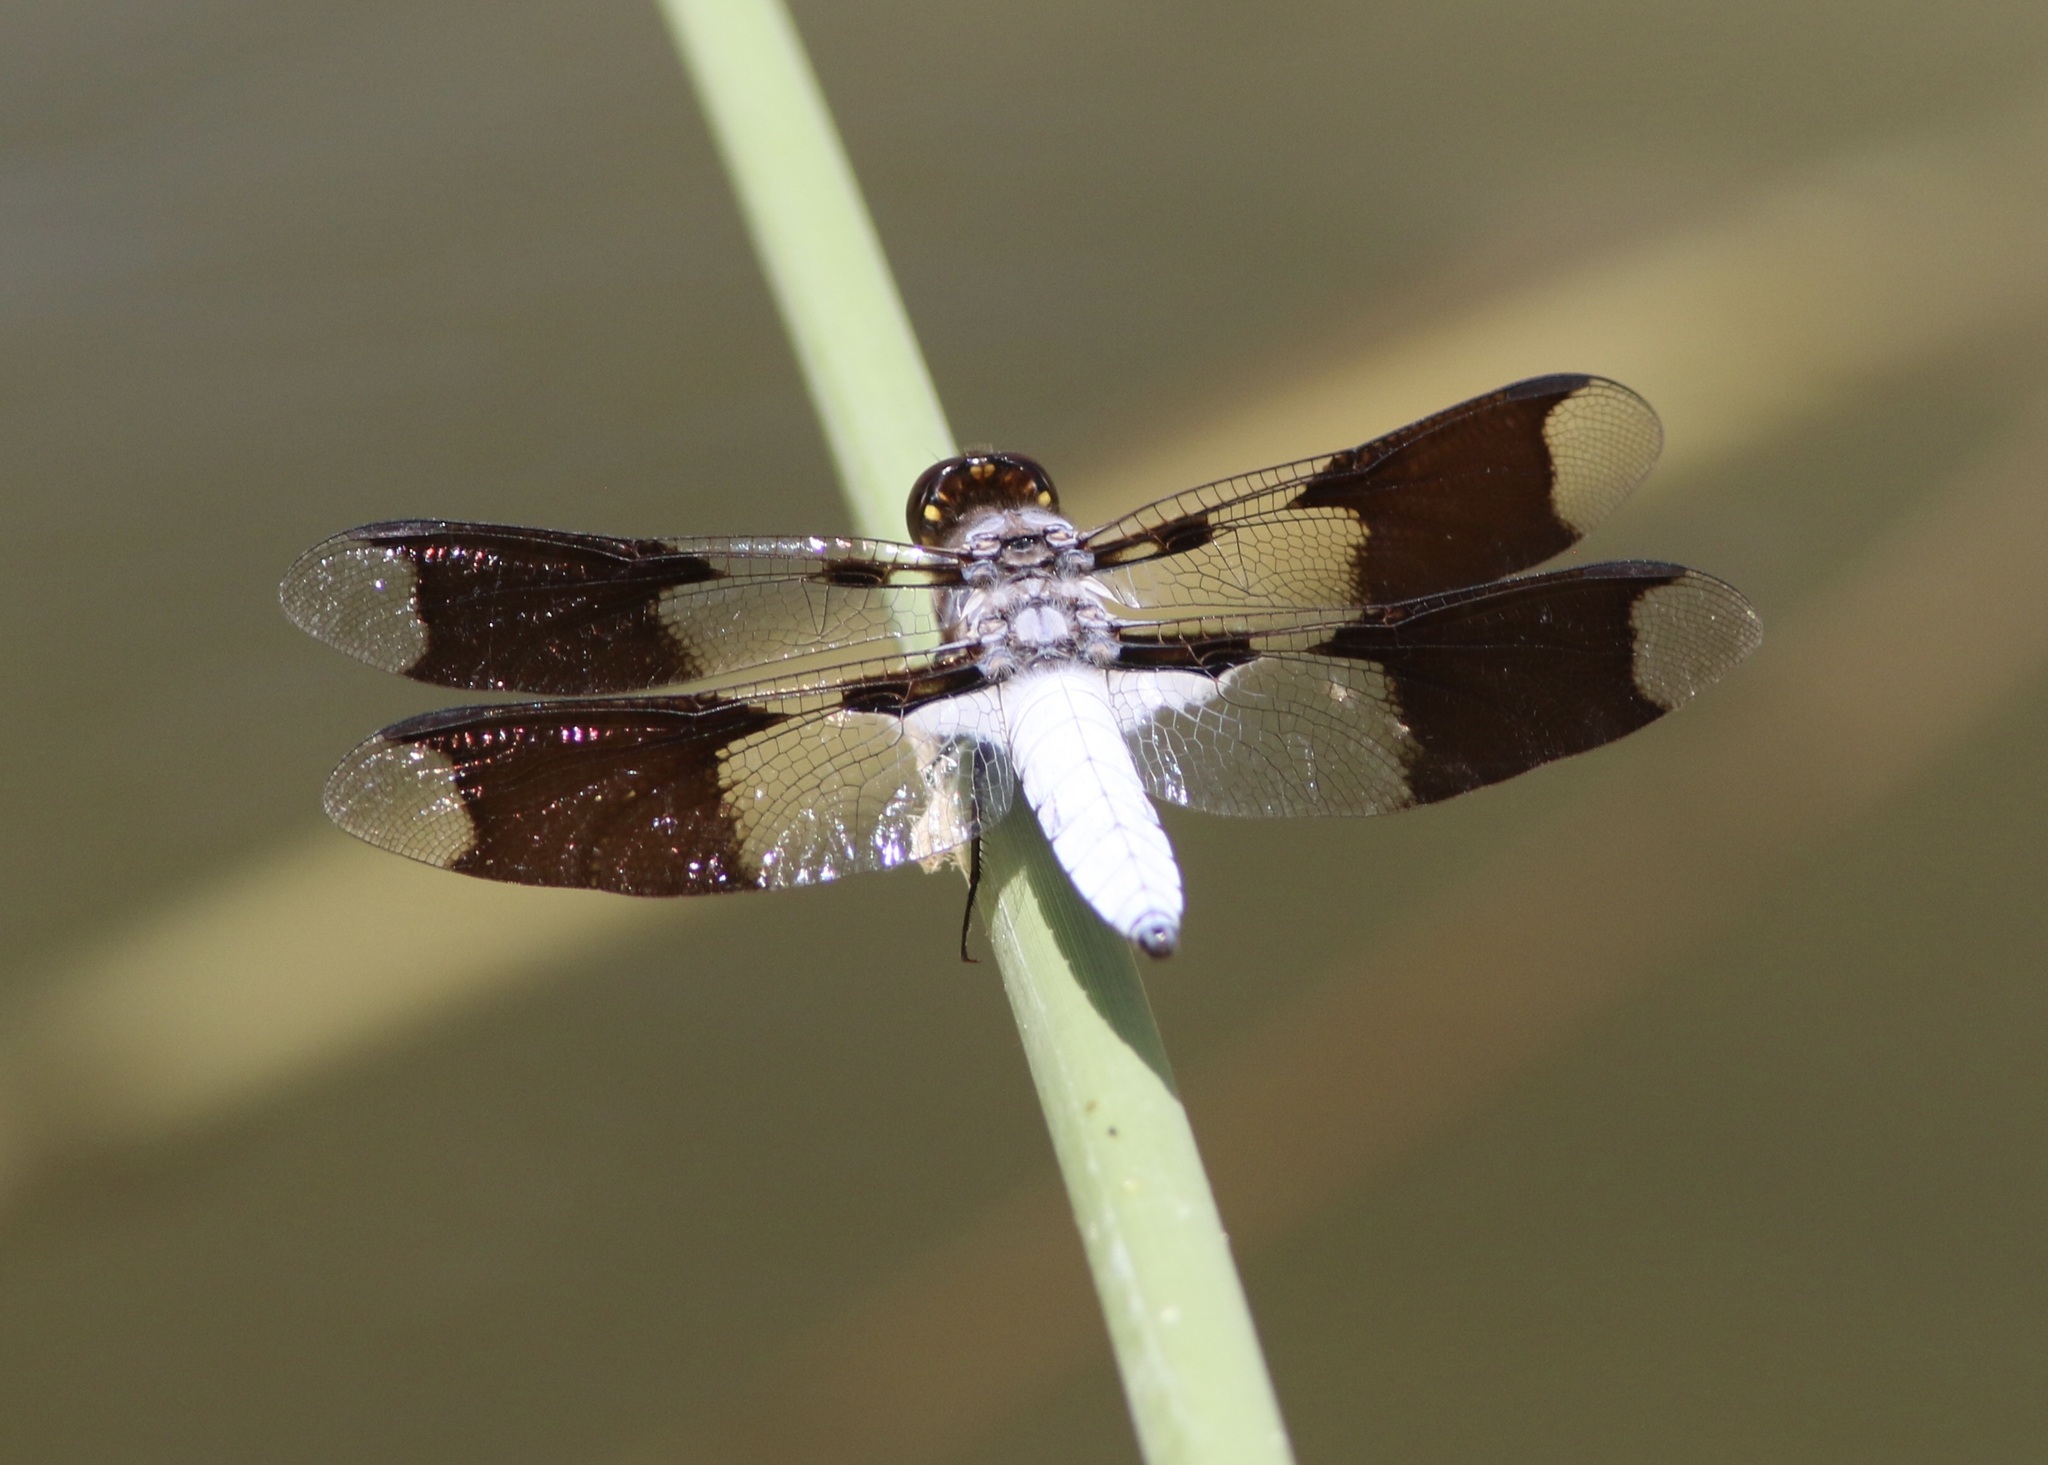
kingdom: Animalia
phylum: Arthropoda
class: Insecta
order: Odonata
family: Libellulidae
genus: Plathemis
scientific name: Plathemis lydia
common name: Common whitetail
